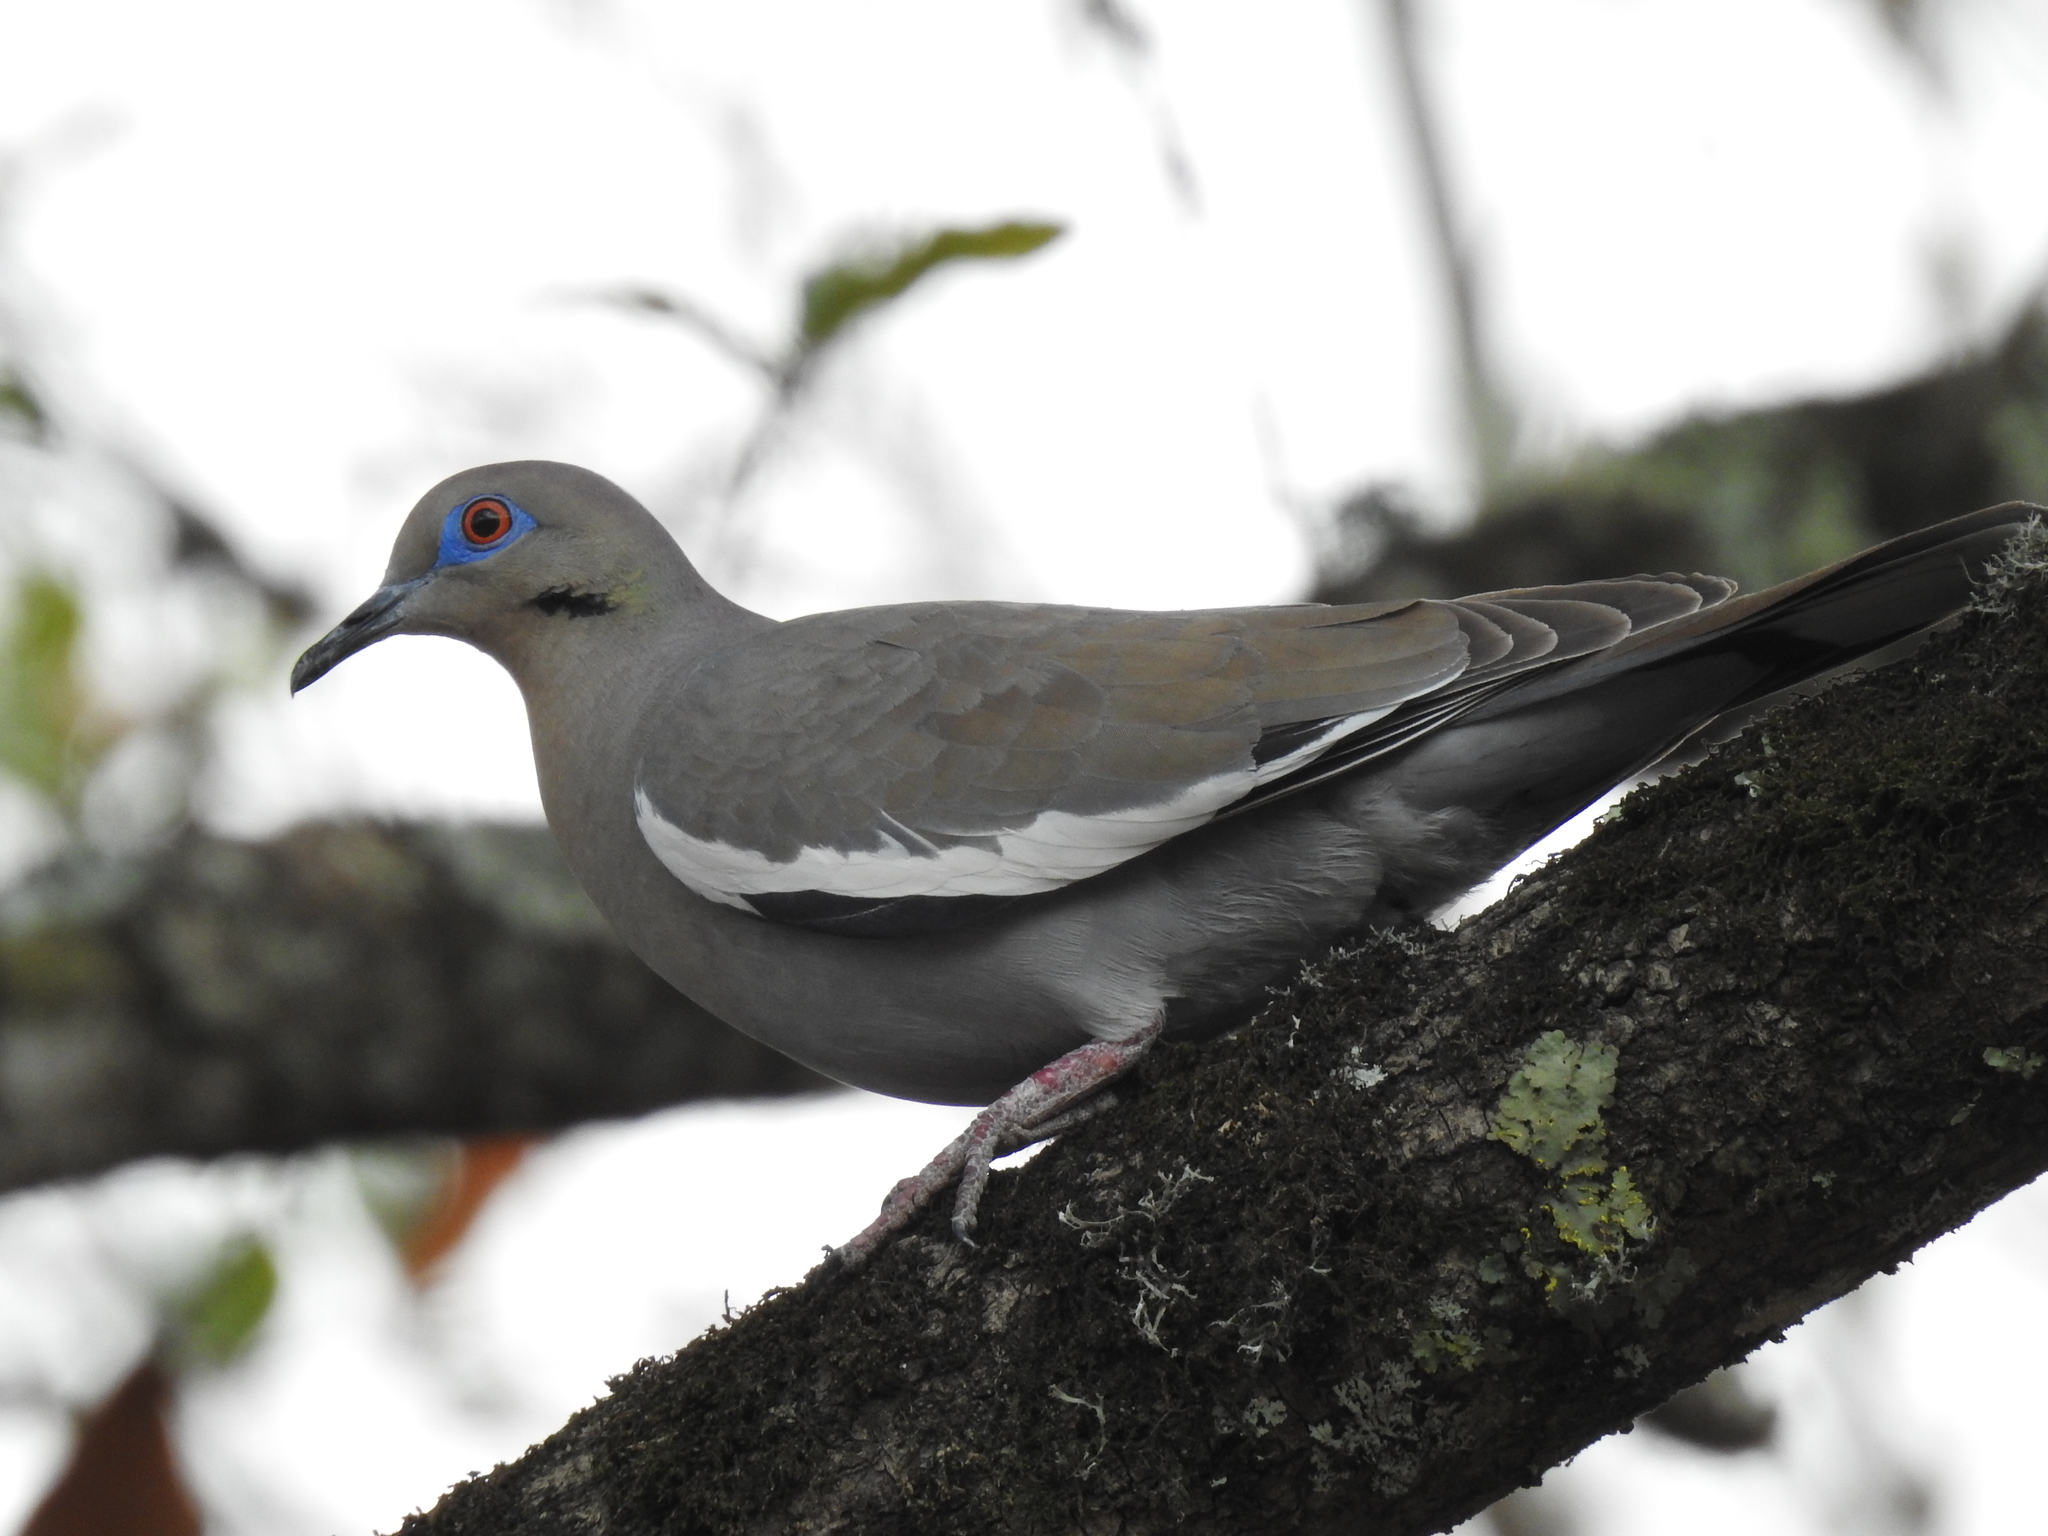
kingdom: Animalia
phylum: Chordata
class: Aves
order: Columbiformes
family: Columbidae
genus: Zenaida
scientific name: Zenaida asiatica
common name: White-winged dove
